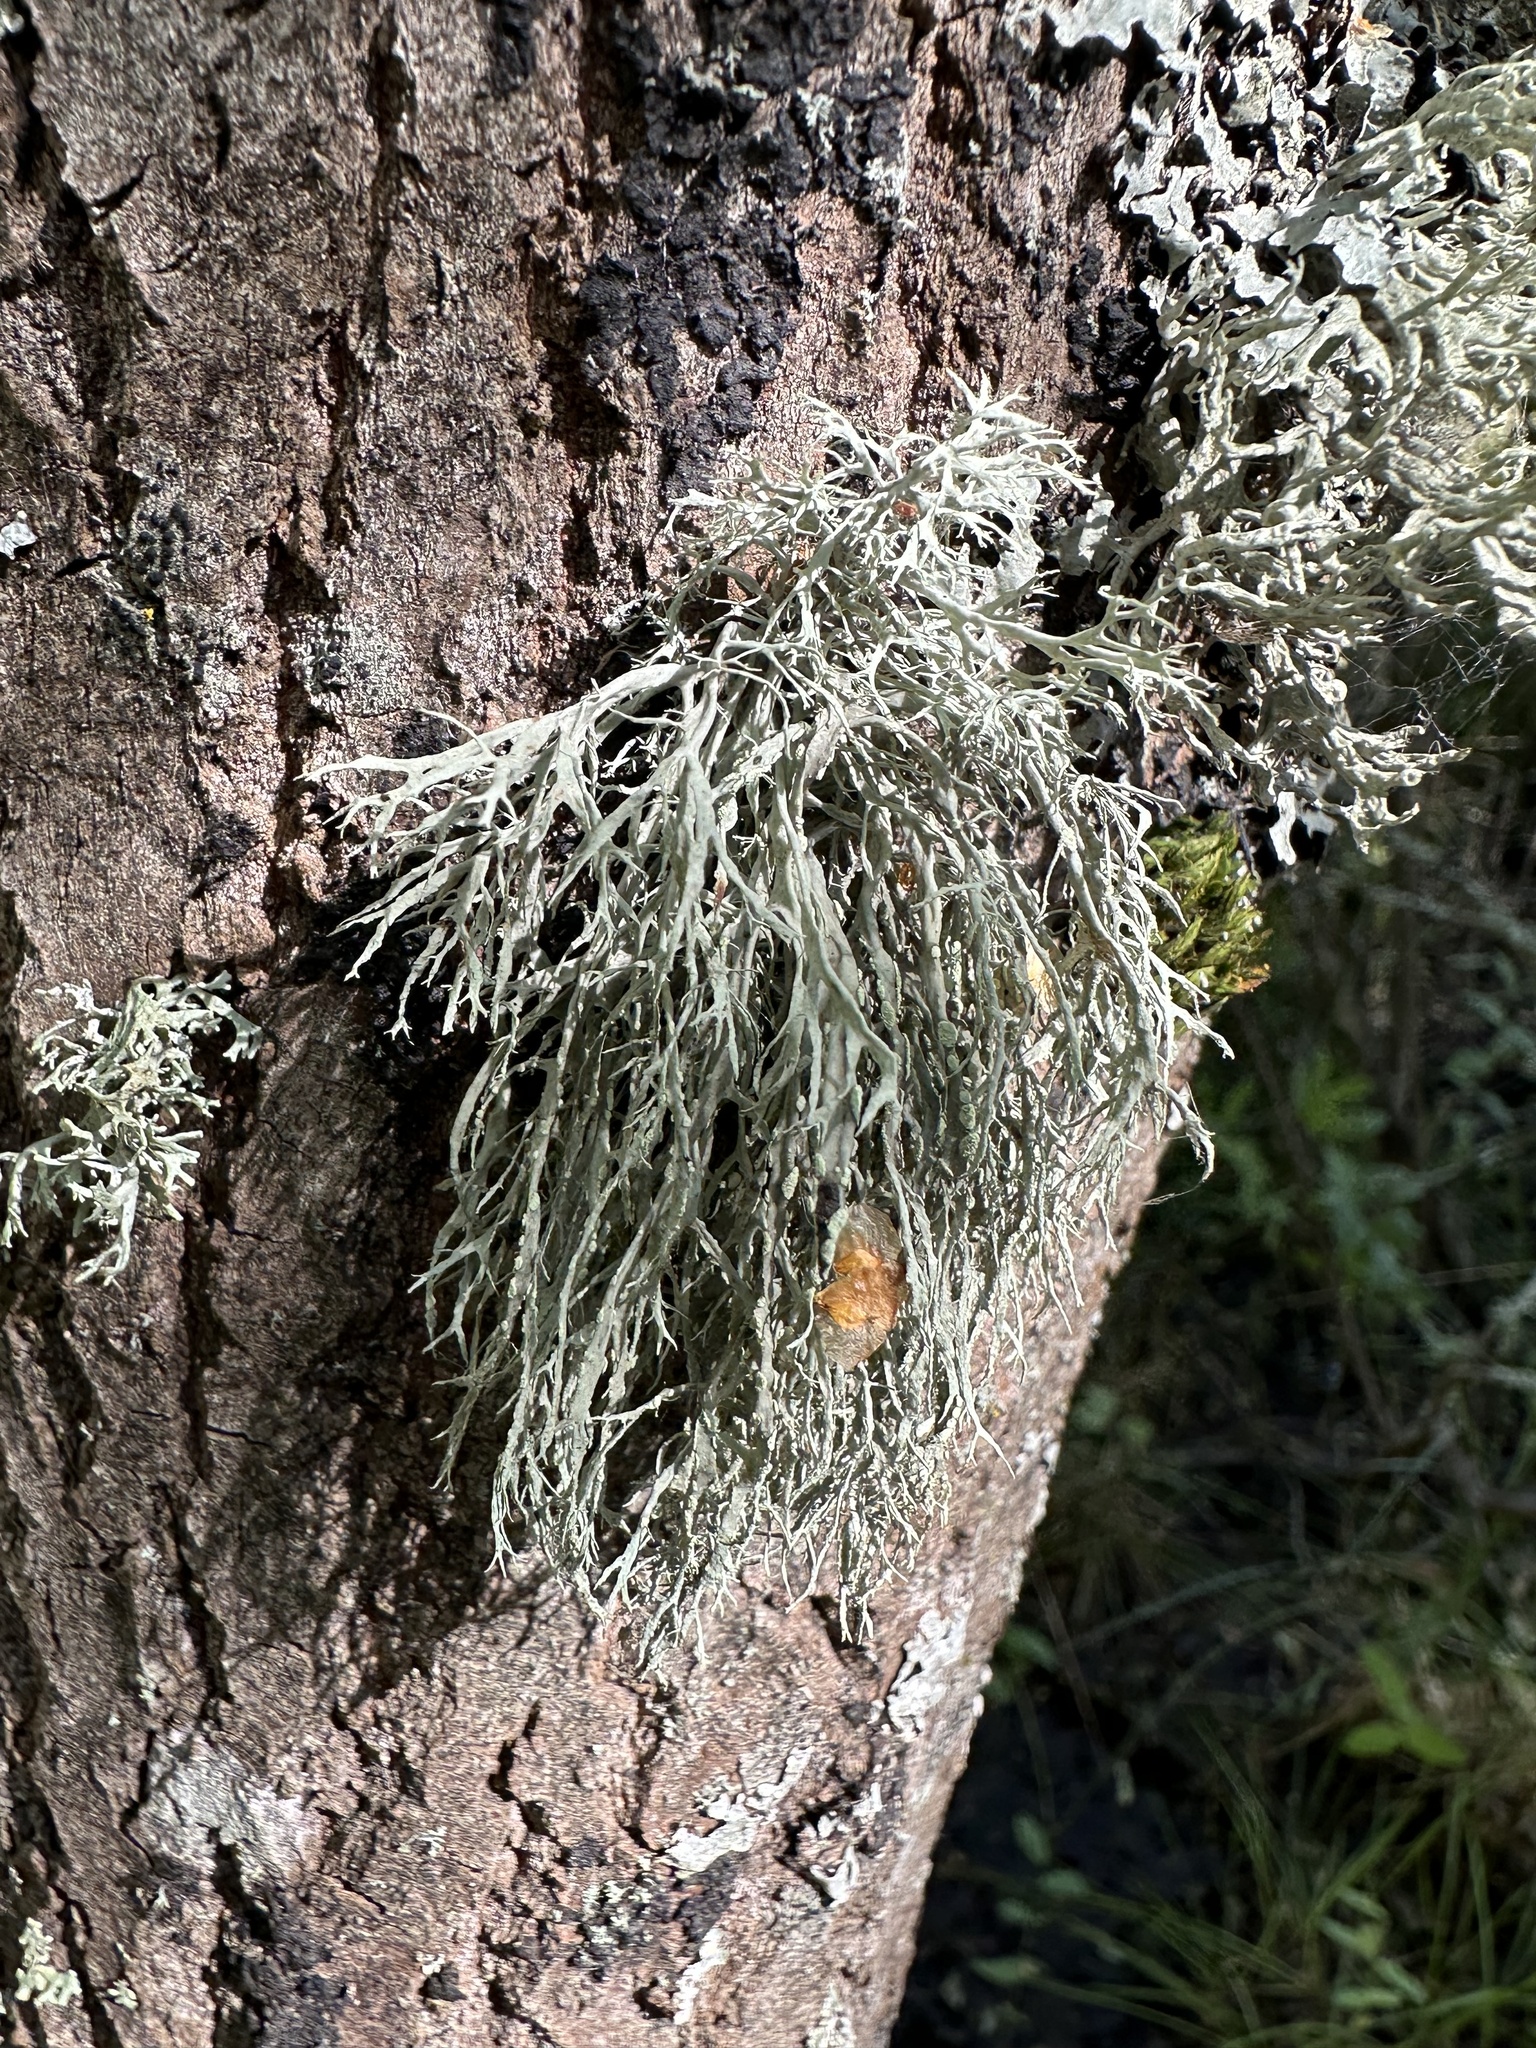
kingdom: Fungi
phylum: Ascomycota
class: Lecanoromycetes
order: Lecanorales
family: Ramalinaceae
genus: Ramalina
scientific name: Ramalina farinacea
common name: Farinose cartilage lichen
